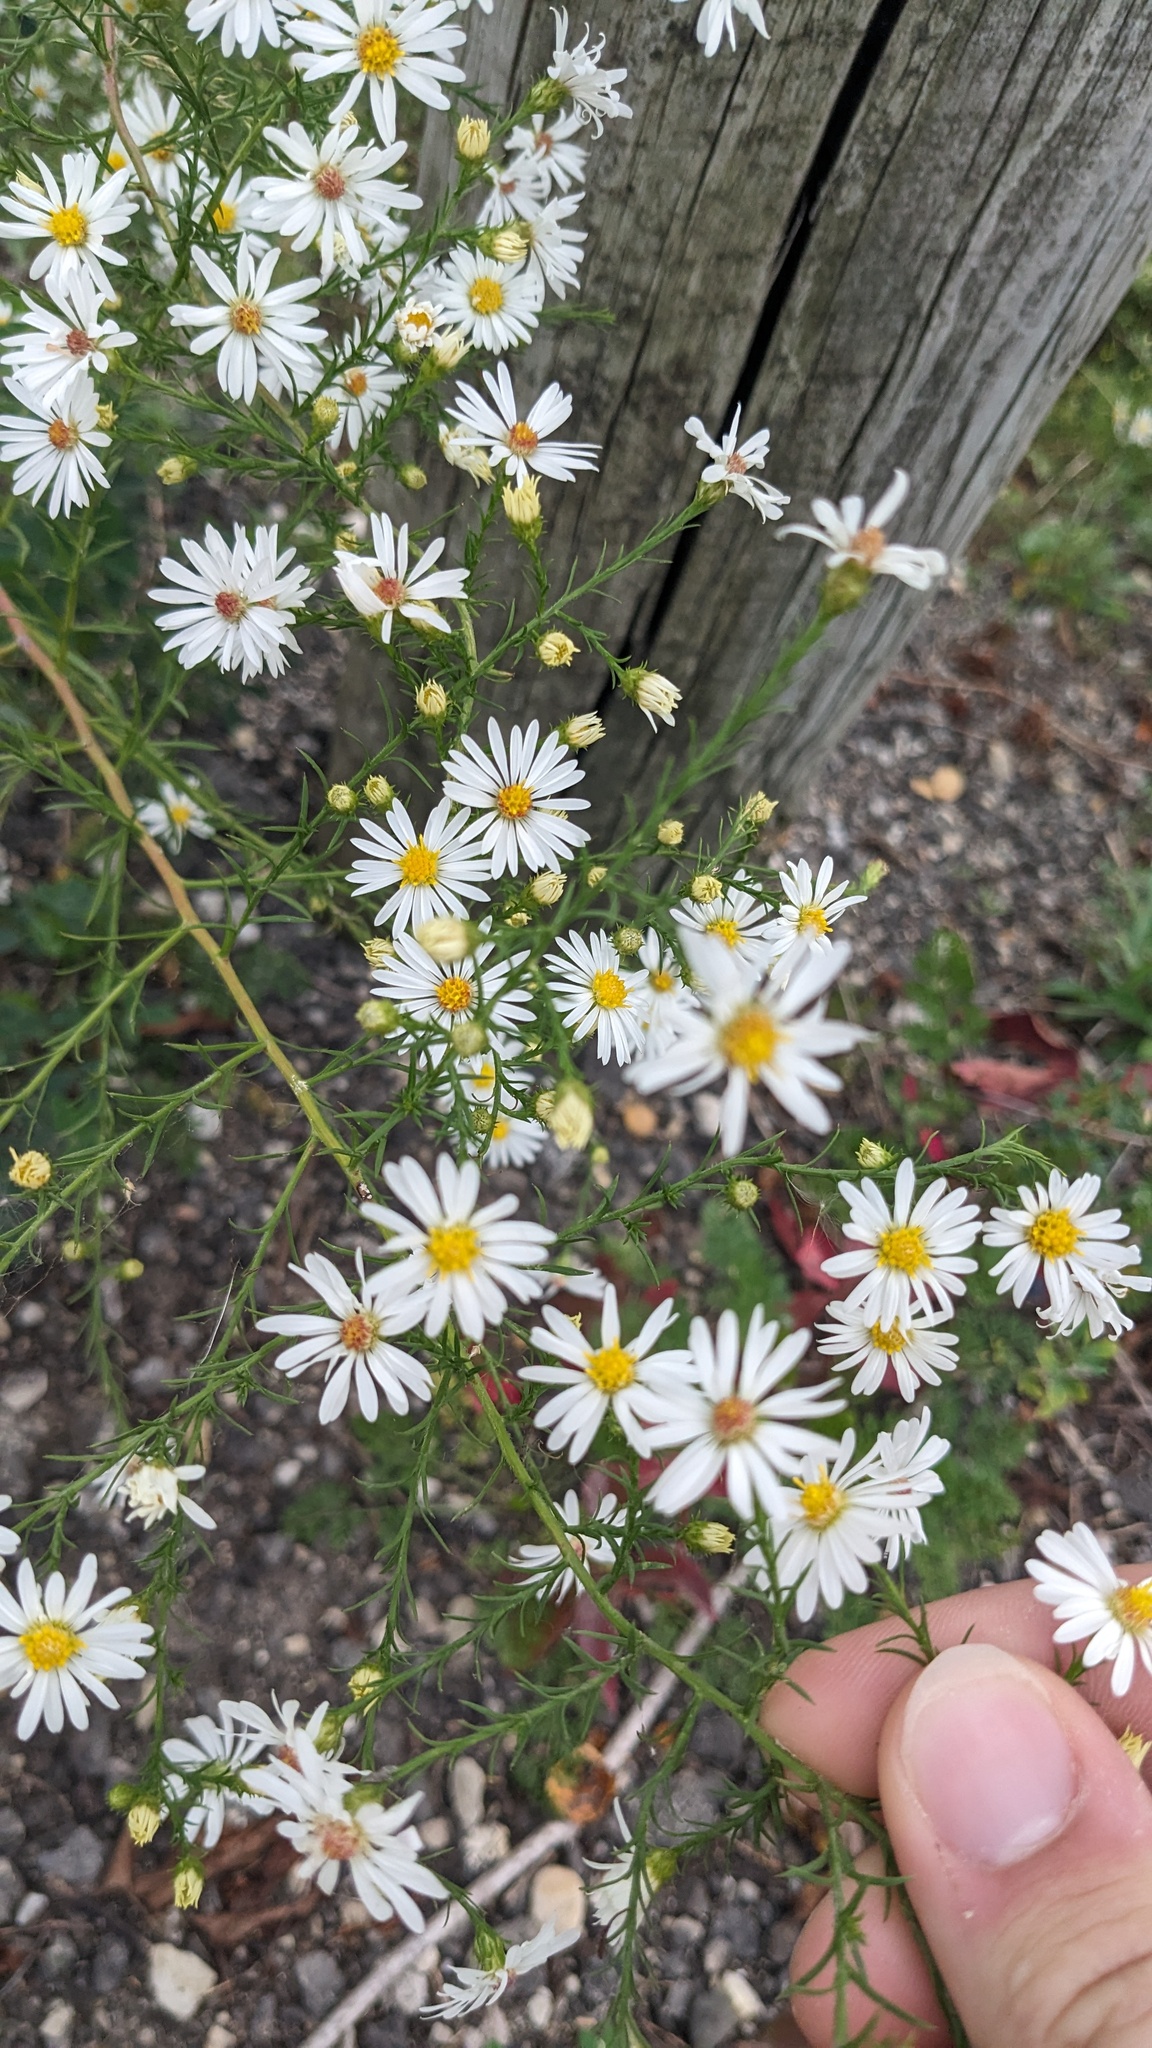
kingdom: Plantae
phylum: Tracheophyta
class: Magnoliopsida
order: Asterales
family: Asteraceae
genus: Symphyotrichum
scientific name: Symphyotrichum pilosum
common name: Awl aster
